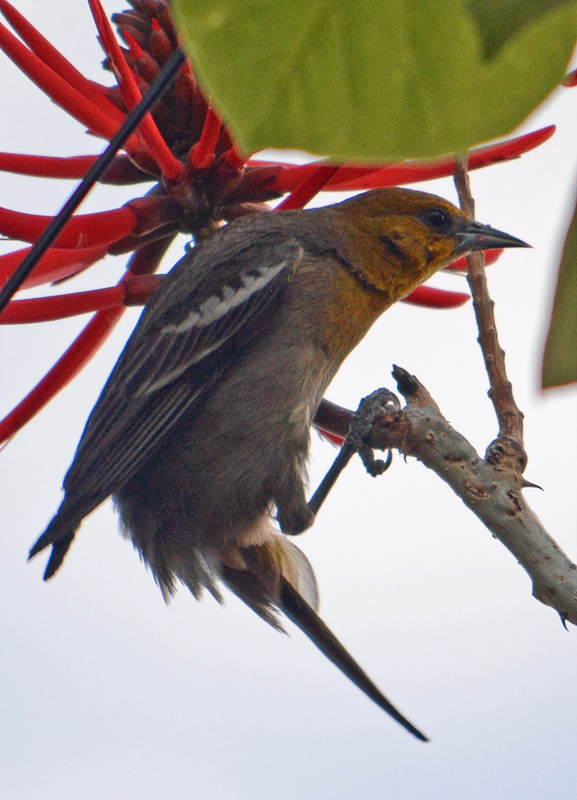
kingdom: Animalia
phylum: Chordata
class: Aves
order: Passeriformes
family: Icteridae
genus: Icterus
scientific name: Icterus abeillei
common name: Black-backed oriole
